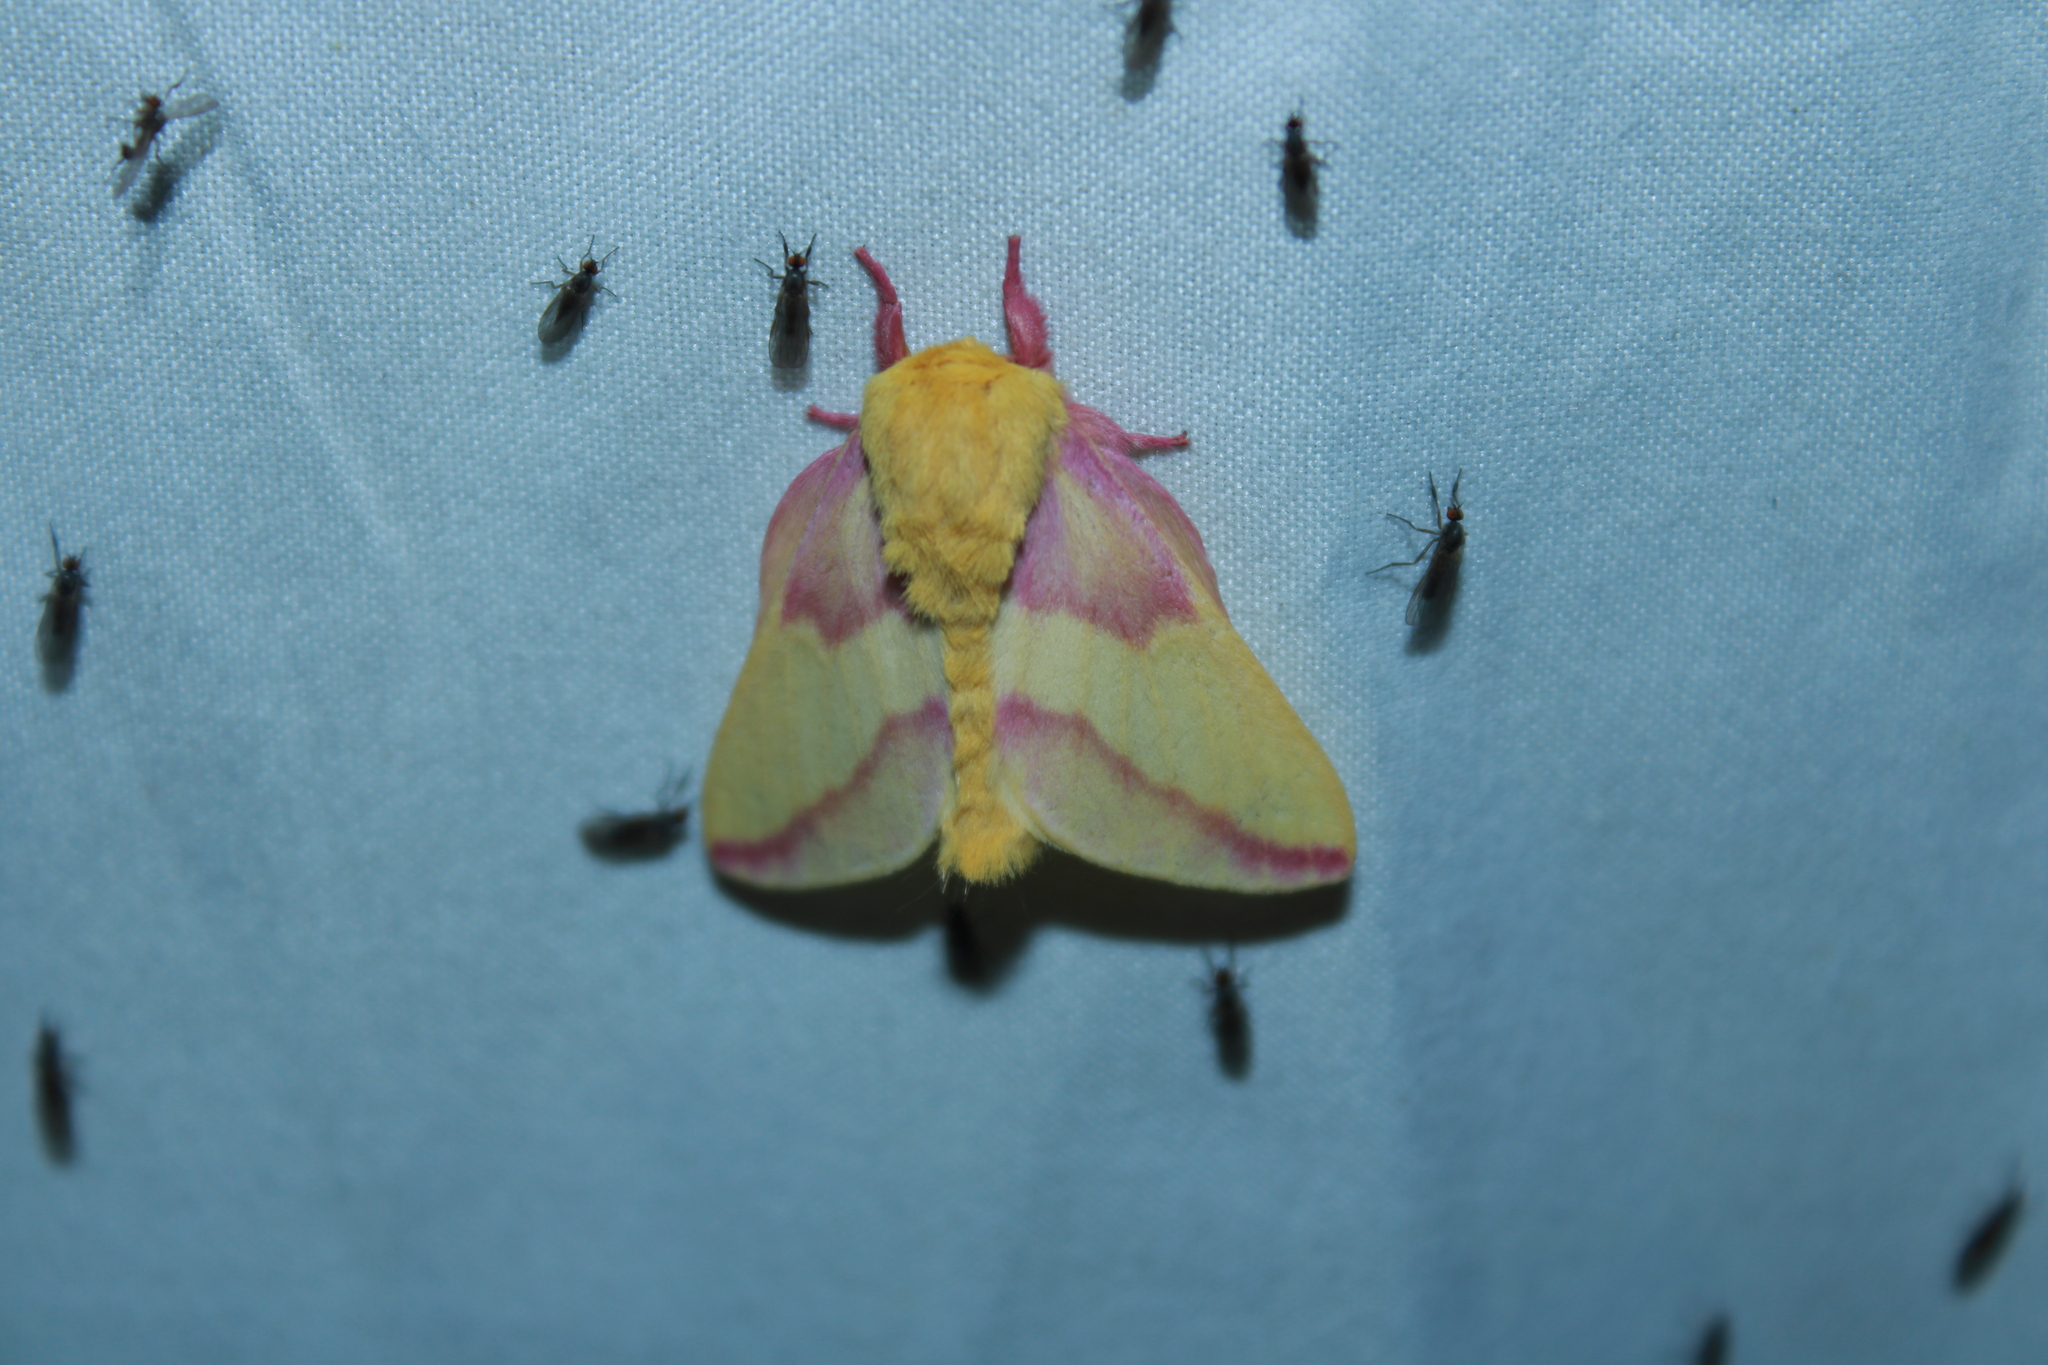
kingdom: Animalia
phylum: Arthropoda
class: Insecta
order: Lepidoptera
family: Saturniidae
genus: Dryocampa
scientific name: Dryocampa rubicunda
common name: Rosy maple moth
